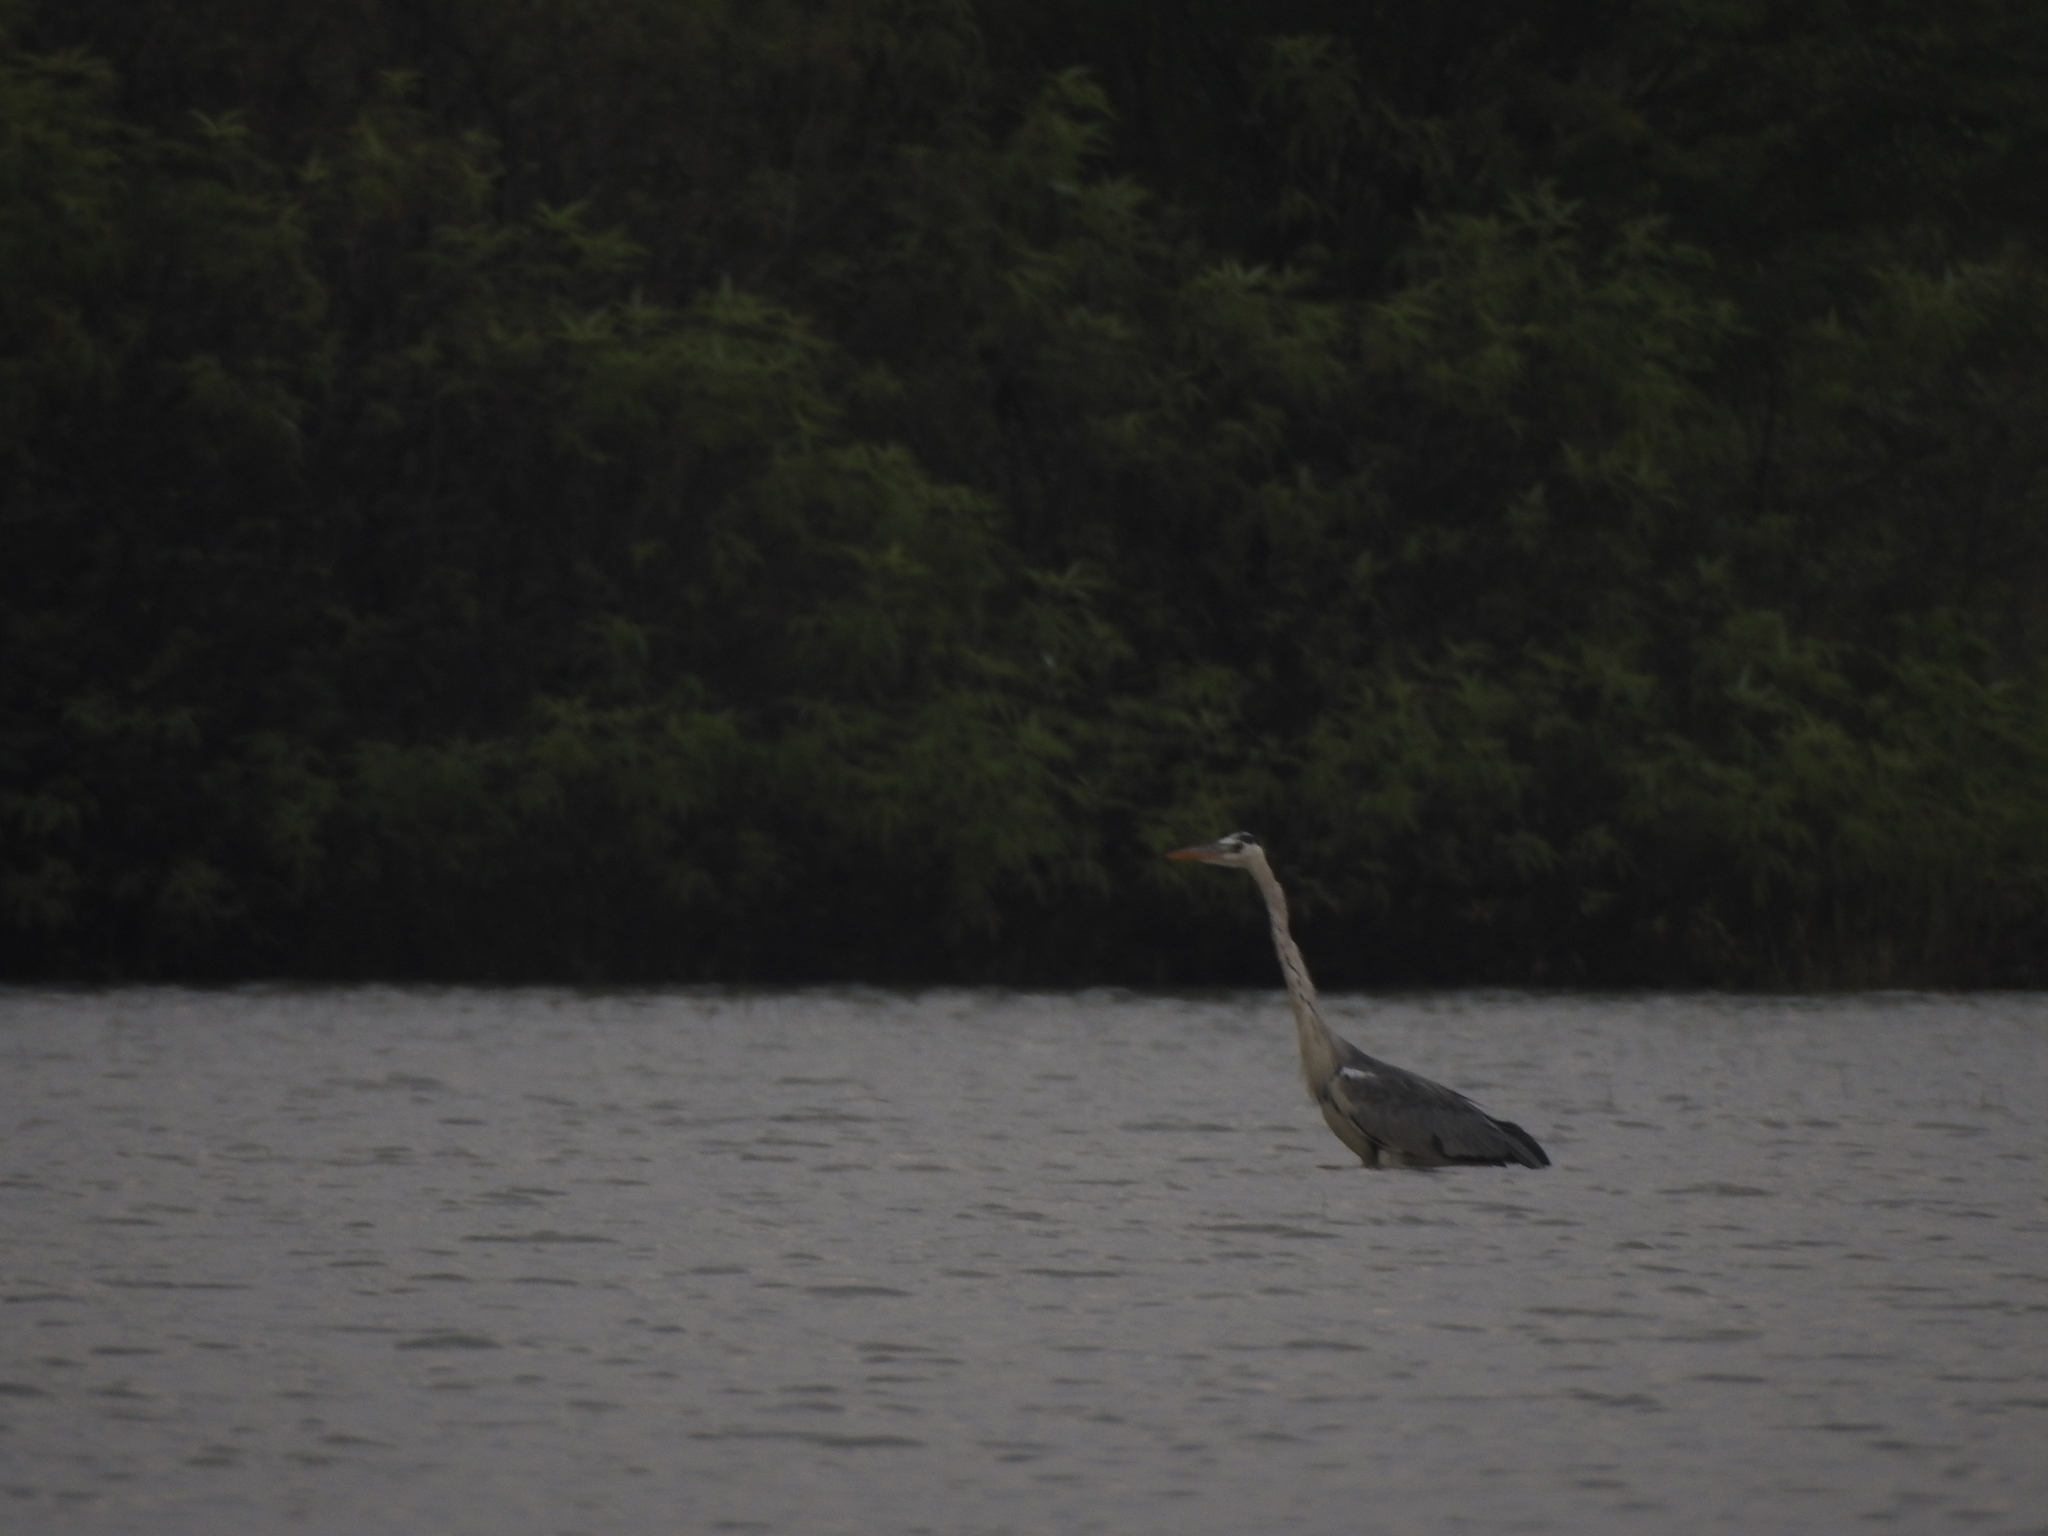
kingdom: Animalia
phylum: Chordata
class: Aves
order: Pelecaniformes
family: Ardeidae
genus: Ardea
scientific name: Ardea cinerea
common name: Grey heron
